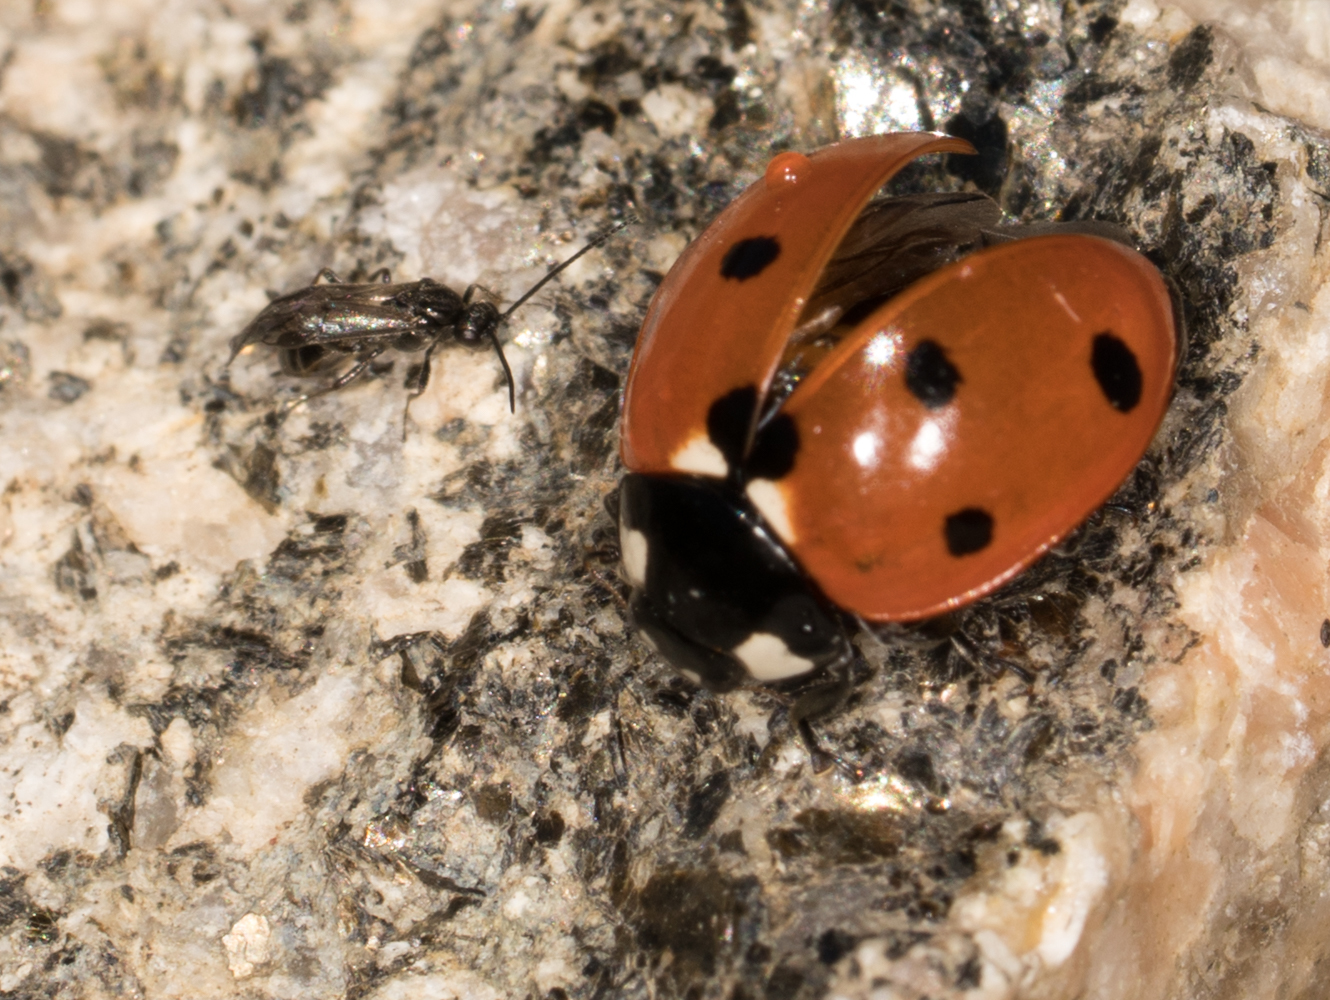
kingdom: Animalia
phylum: Arthropoda
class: Insecta
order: Coleoptera
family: Coccinellidae
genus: Coccinella
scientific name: Coccinella septempunctata
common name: Sevenspotted lady beetle
